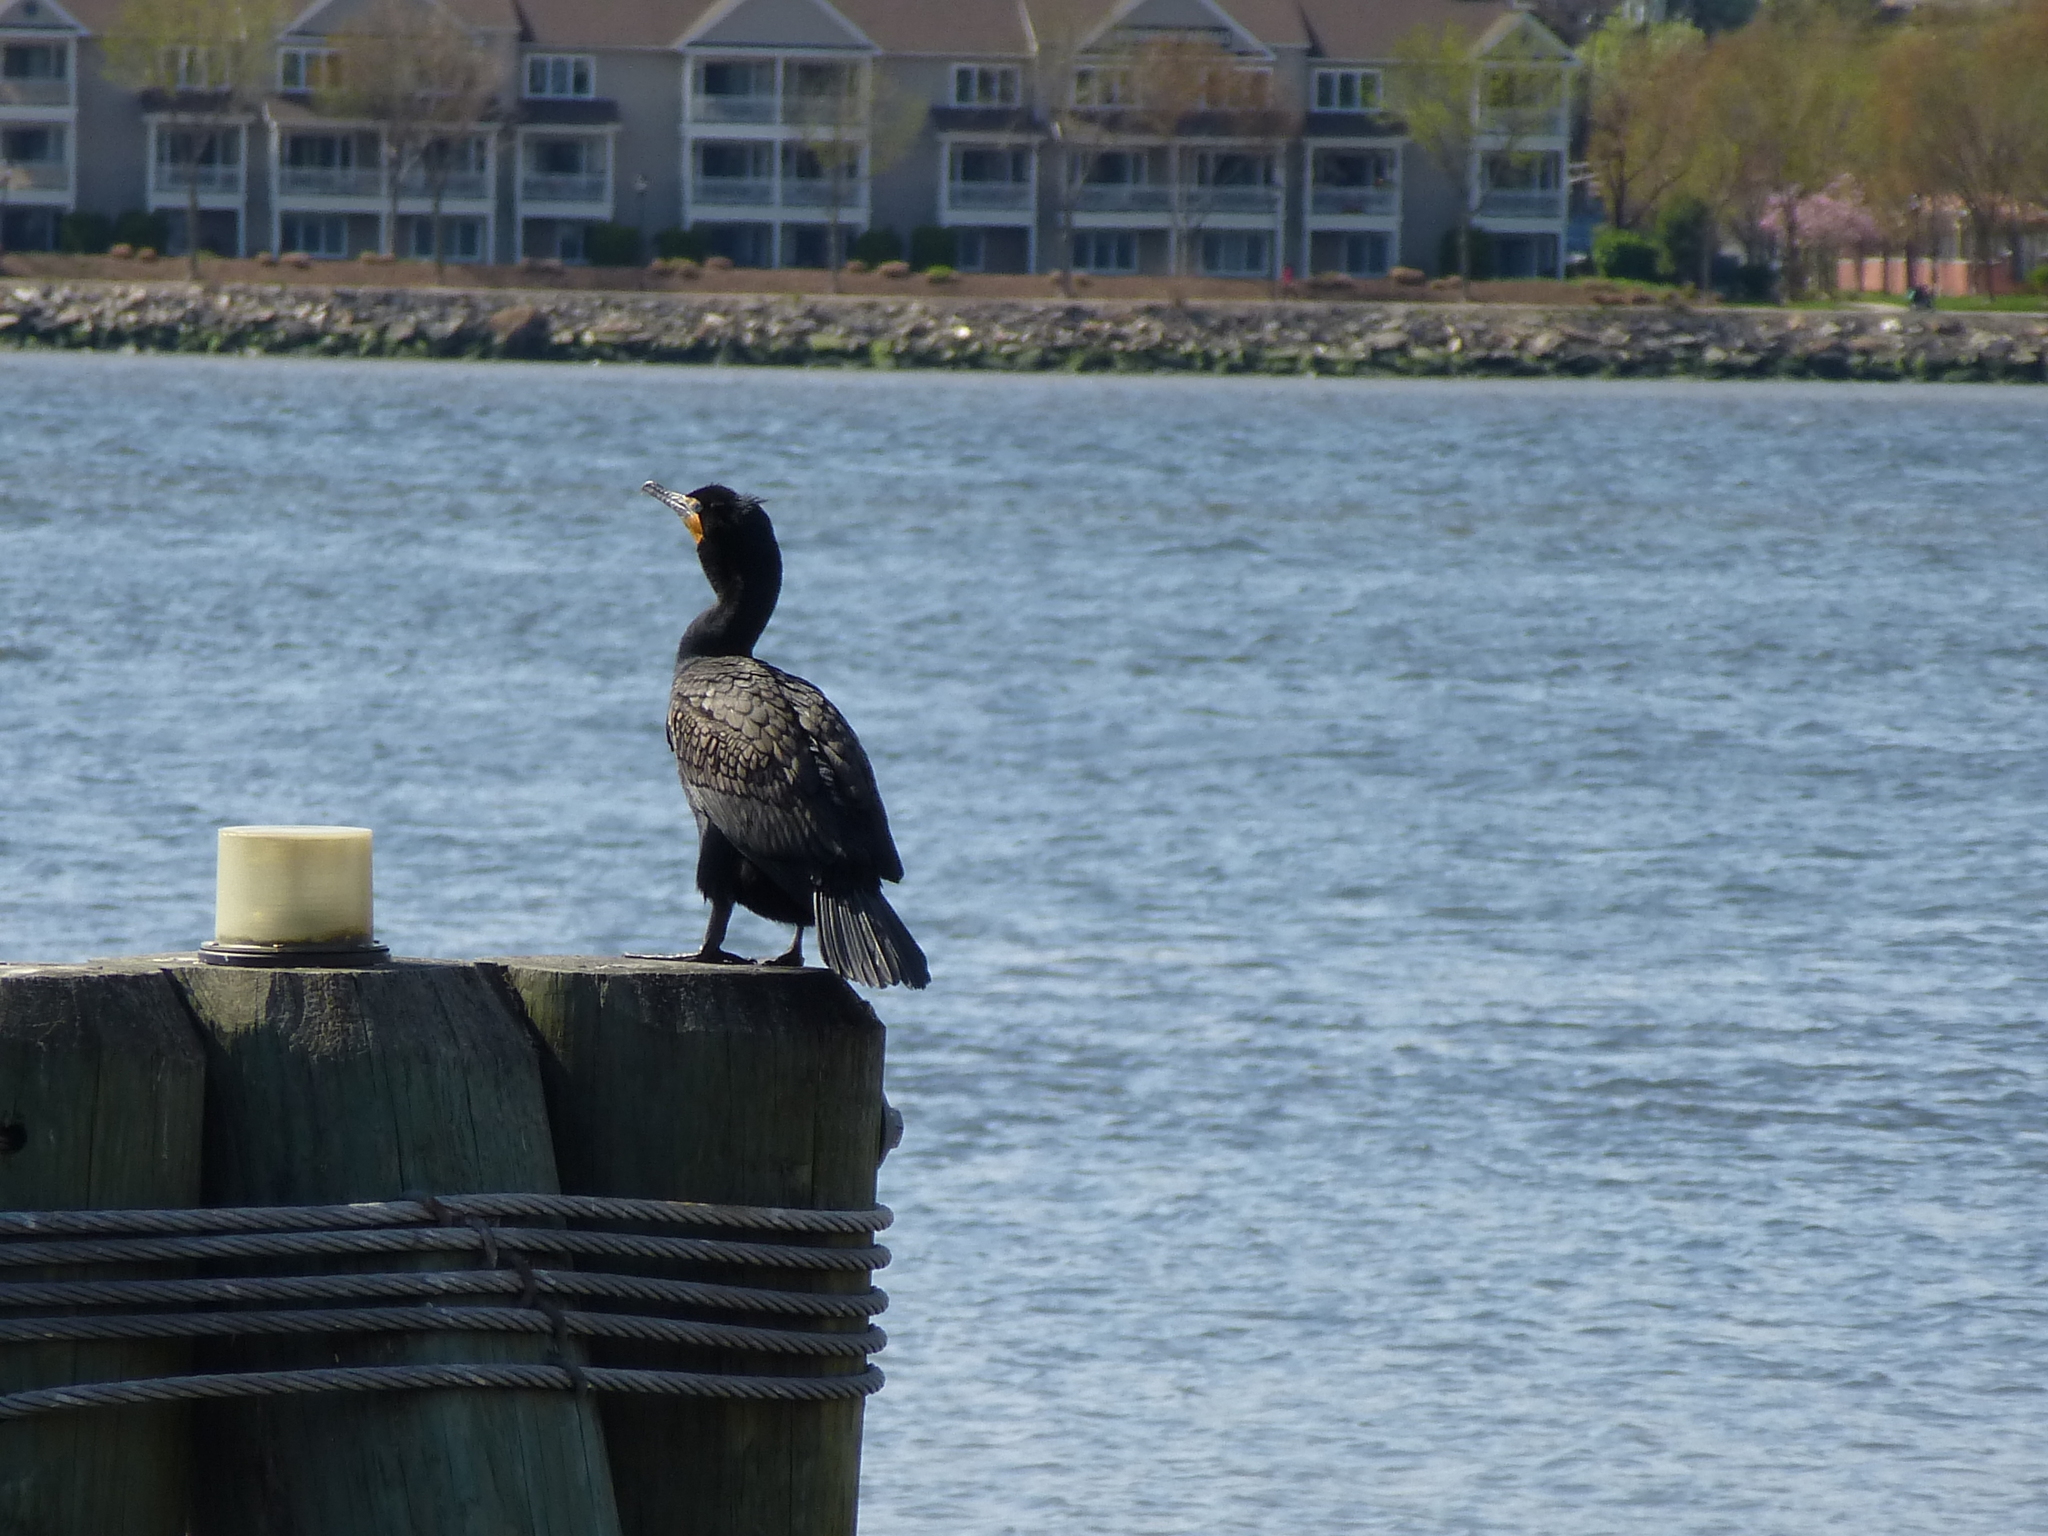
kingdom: Animalia
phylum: Chordata
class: Aves
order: Suliformes
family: Phalacrocoracidae
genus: Phalacrocorax
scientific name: Phalacrocorax auritus
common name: Double-crested cormorant
